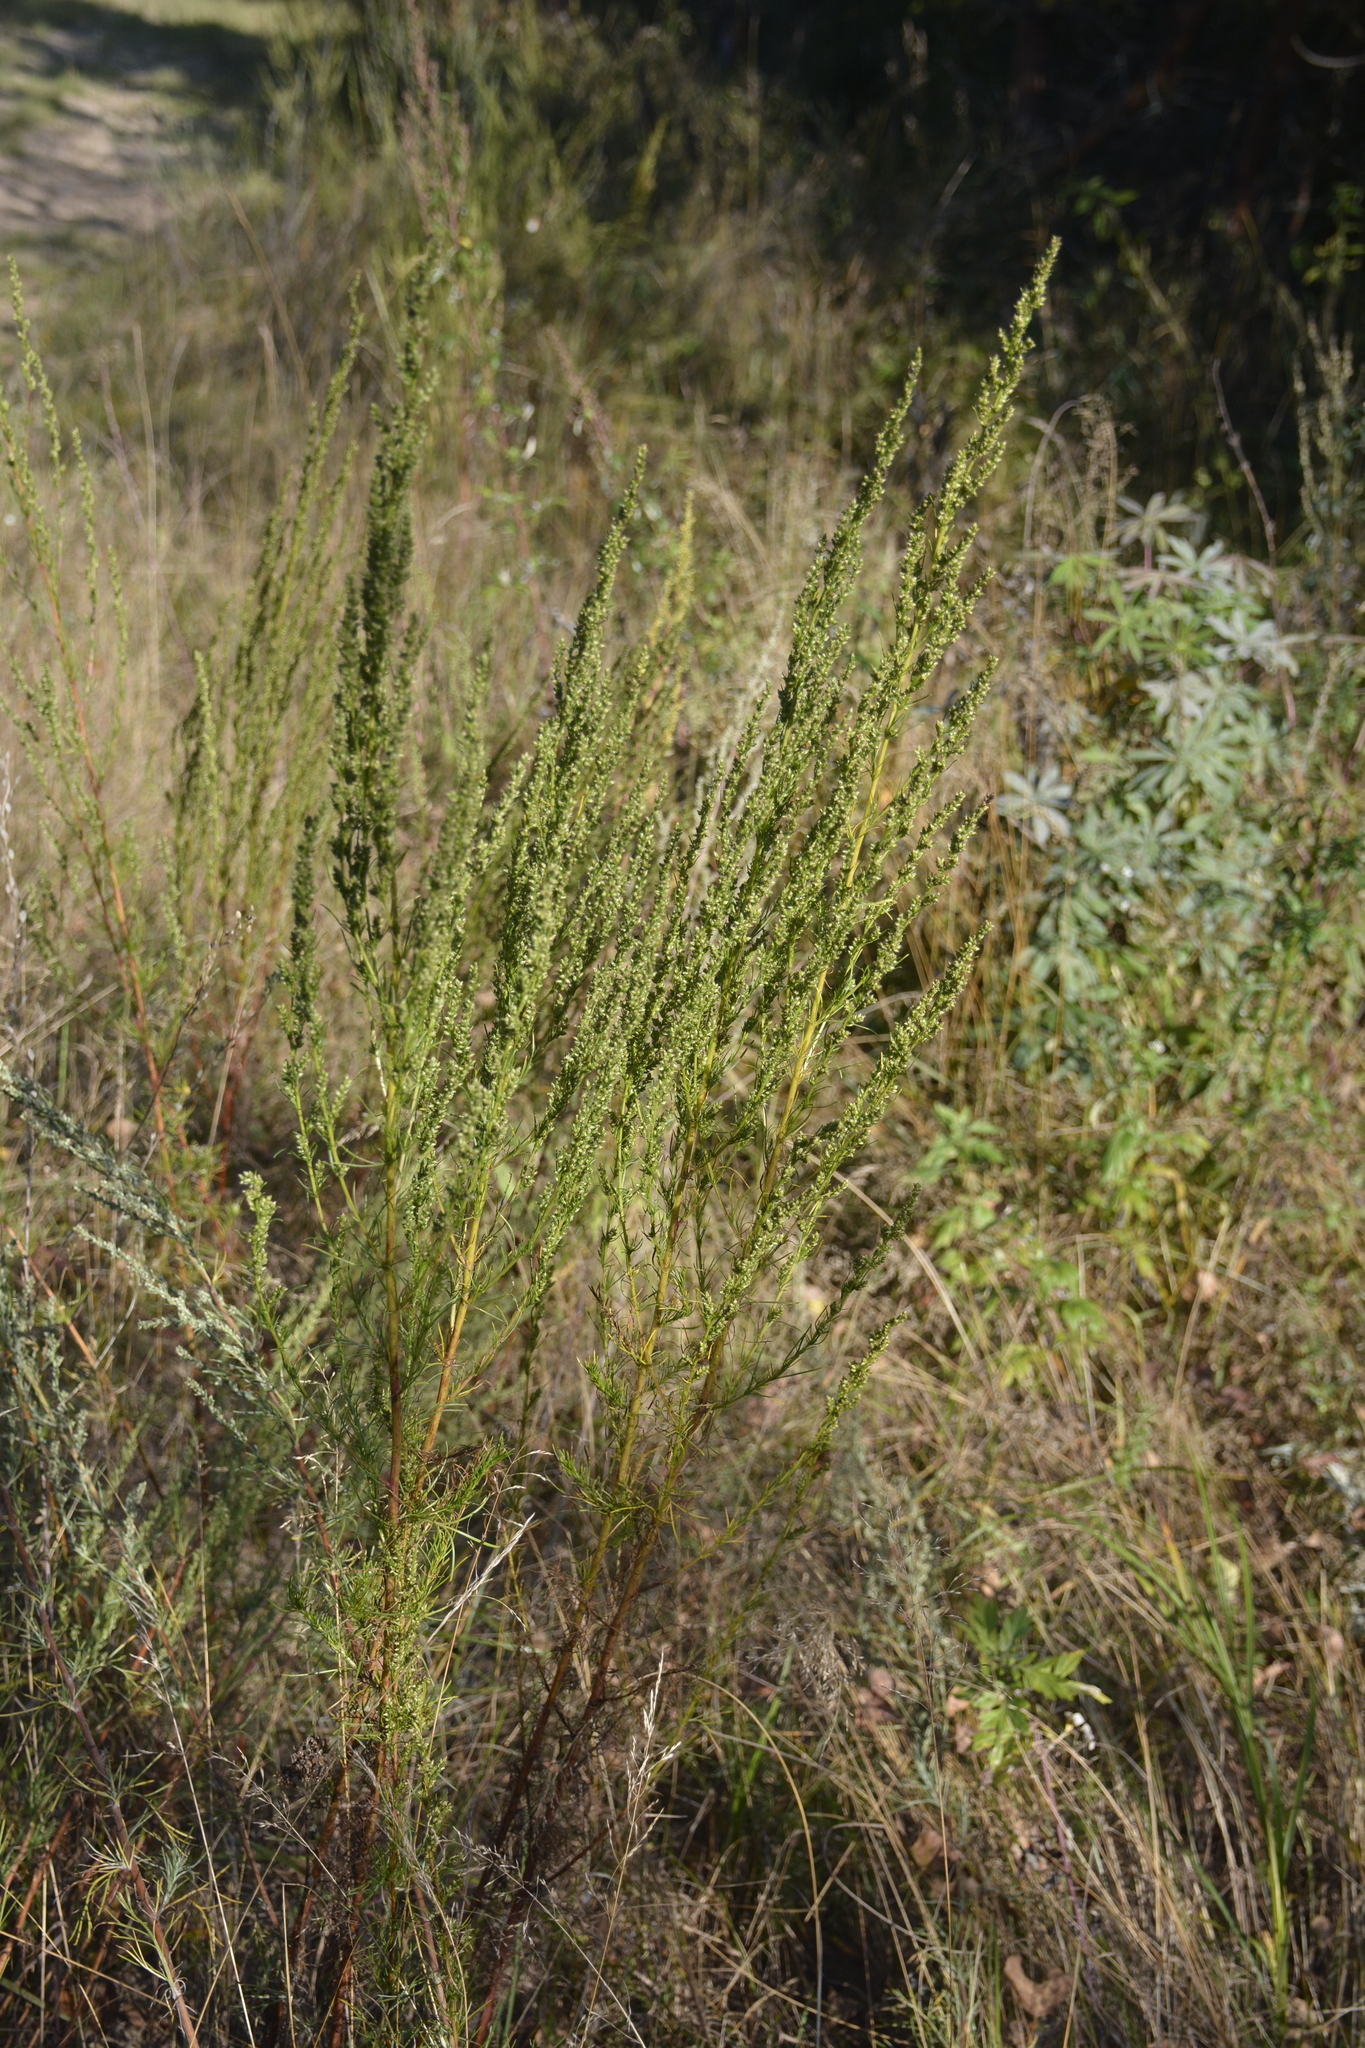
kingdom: Plantae
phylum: Tracheophyta
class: Magnoliopsida
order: Asterales
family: Asteraceae
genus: Artemisia
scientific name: Artemisia campestris
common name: Field wormwood
